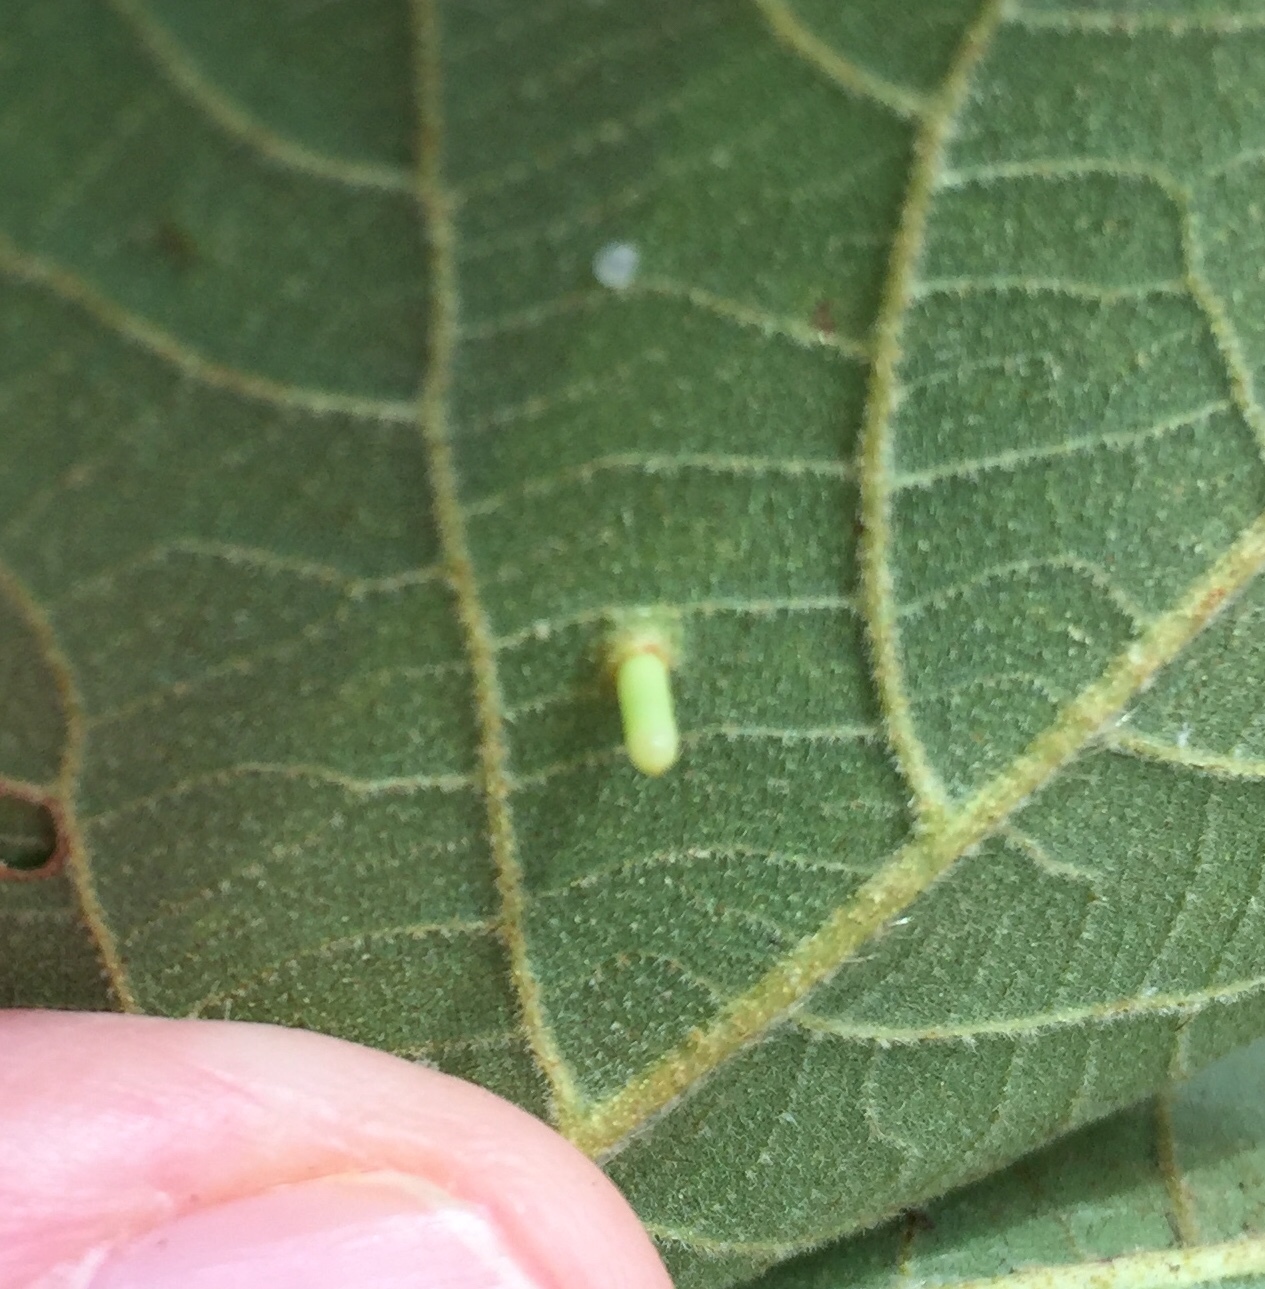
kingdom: Animalia
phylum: Arthropoda
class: Insecta
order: Diptera
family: Cecidomyiidae
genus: Caryomyia
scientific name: Caryomyia tubicola
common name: Hickory bullet gall midge
